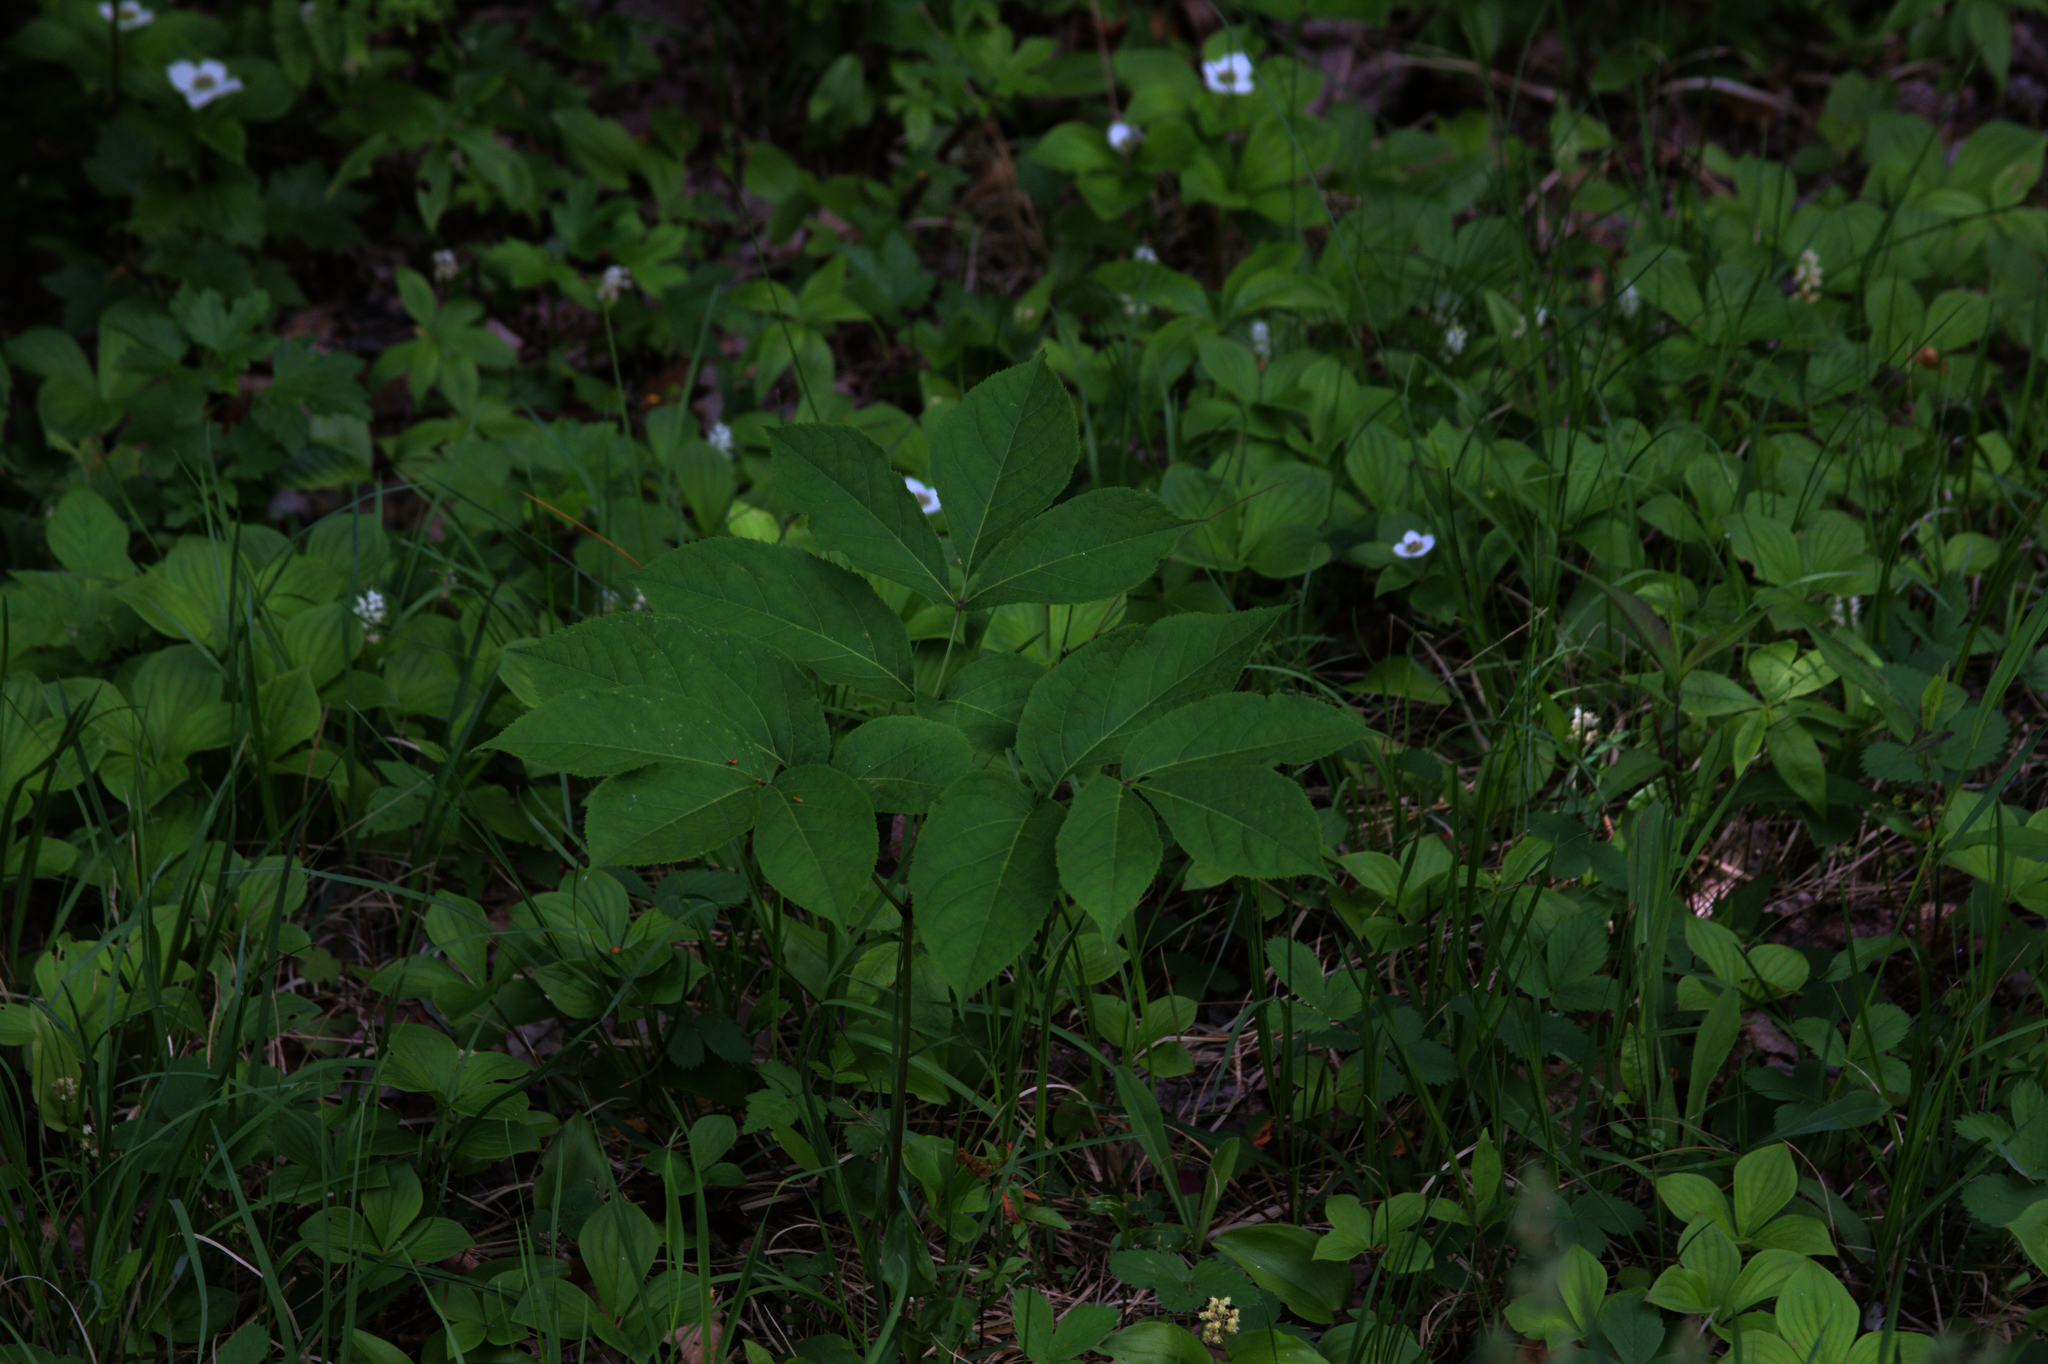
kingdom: Plantae
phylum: Tracheophyta
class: Magnoliopsida
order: Apiales
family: Araliaceae
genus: Aralia
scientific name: Aralia nudicaulis
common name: Wild sarsaparilla
